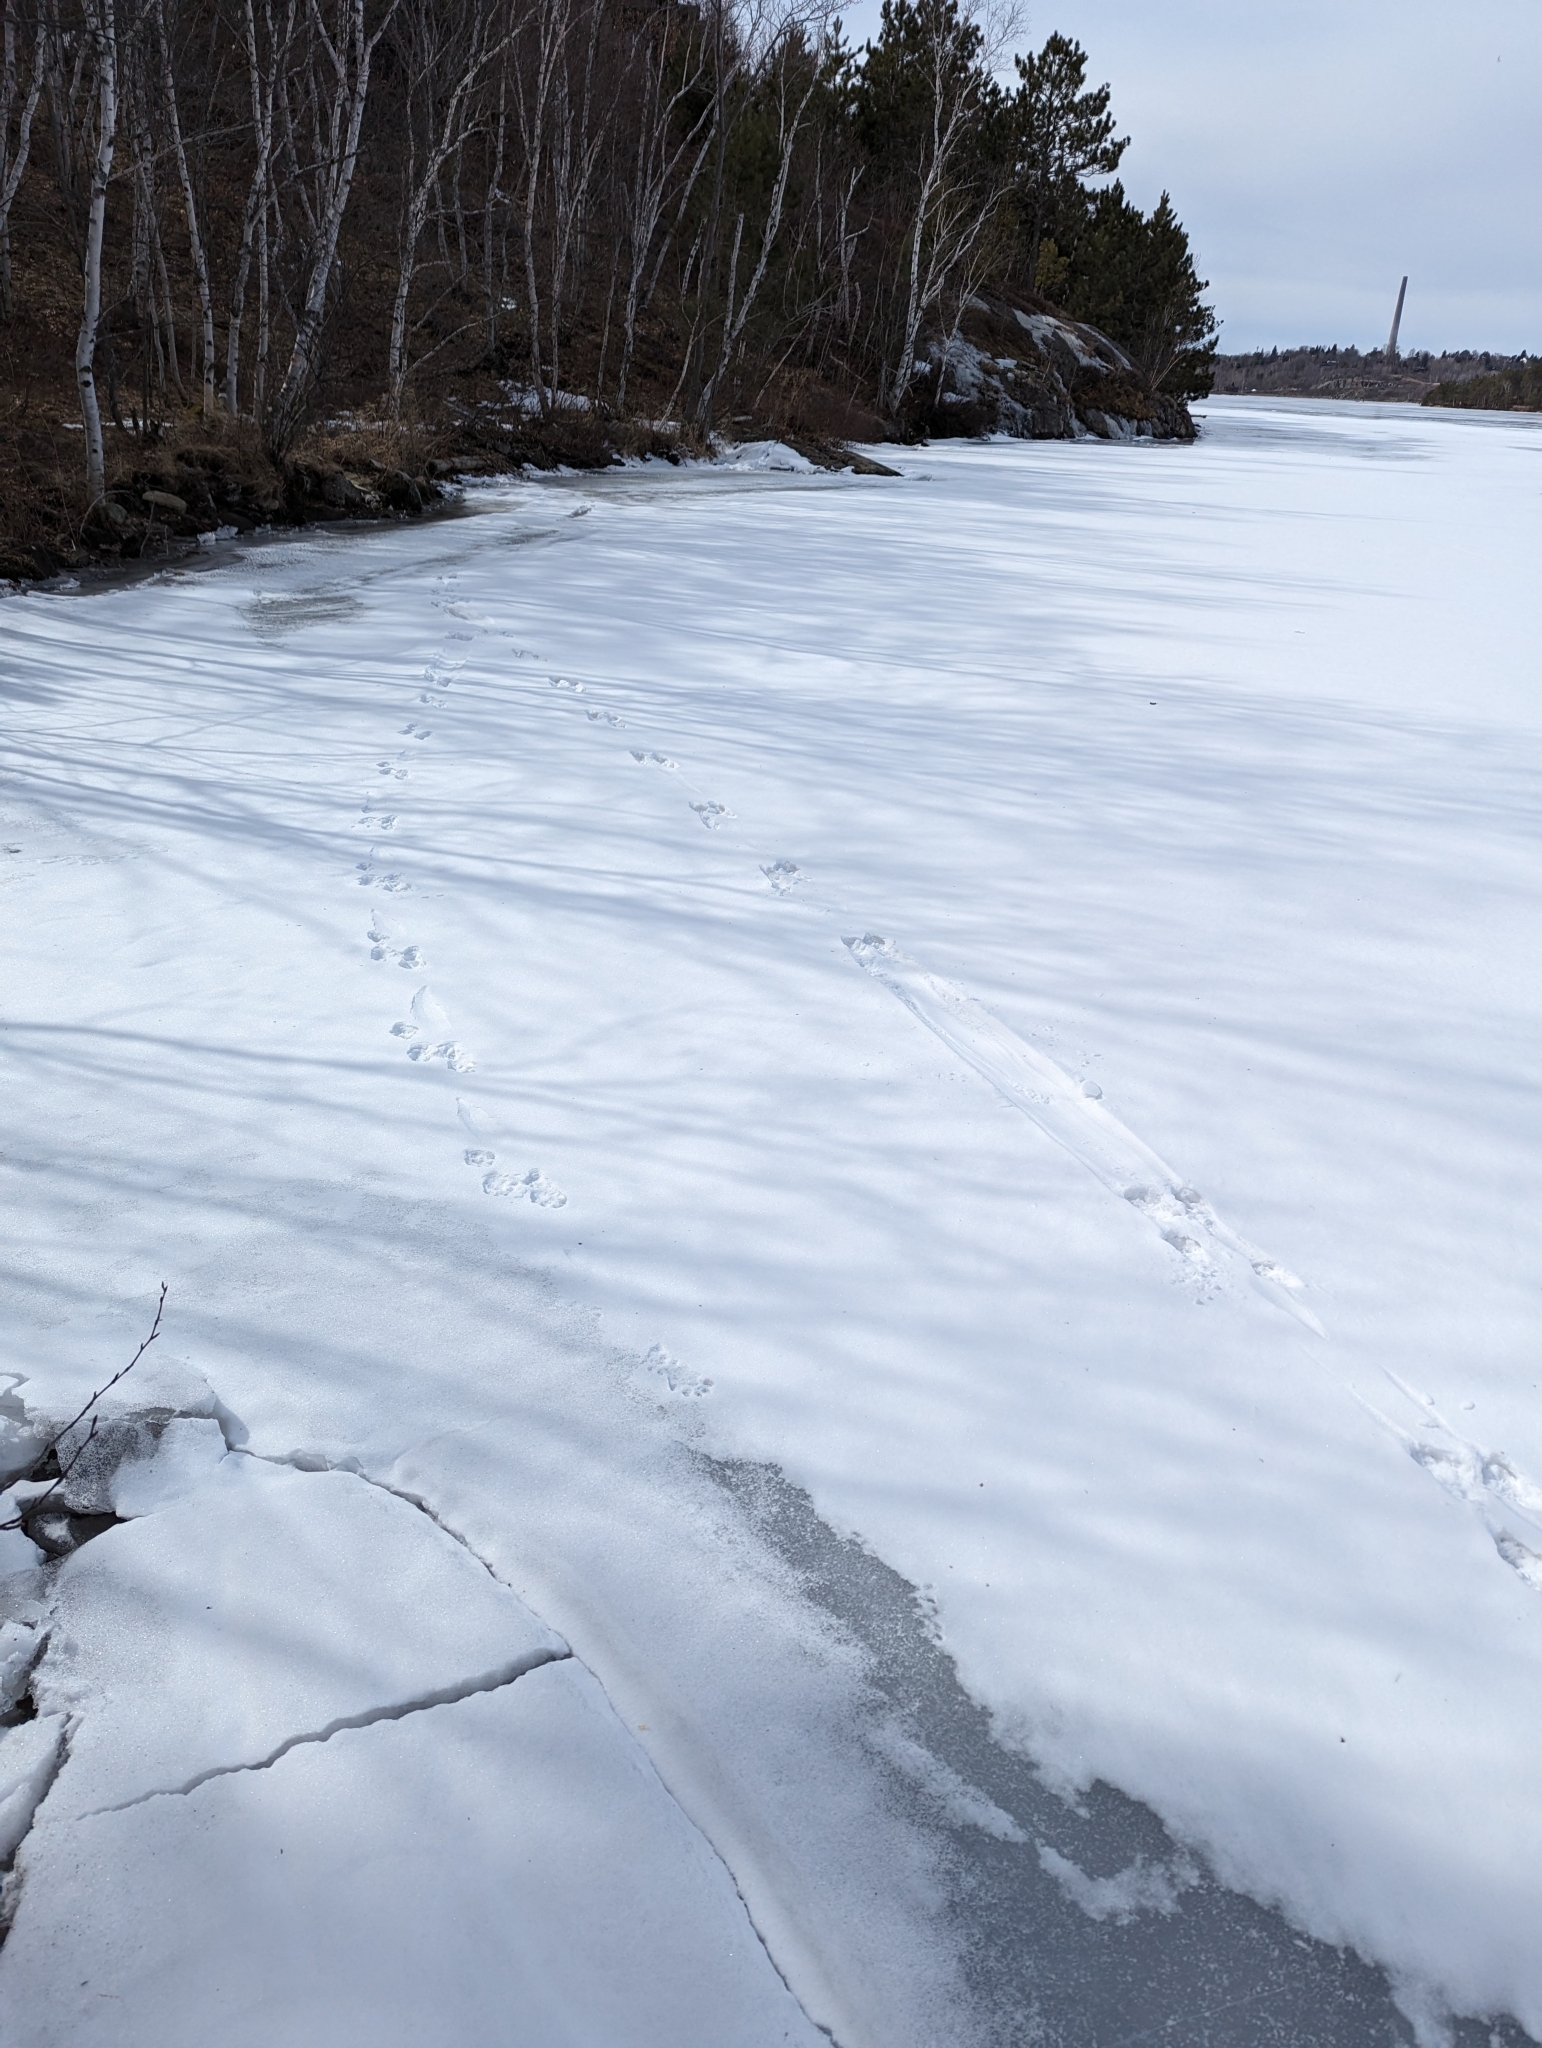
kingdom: Animalia
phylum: Chordata
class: Mammalia
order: Carnivora
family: Mustelidae
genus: Lontra
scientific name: Lontra canadensis
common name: North american river otter
